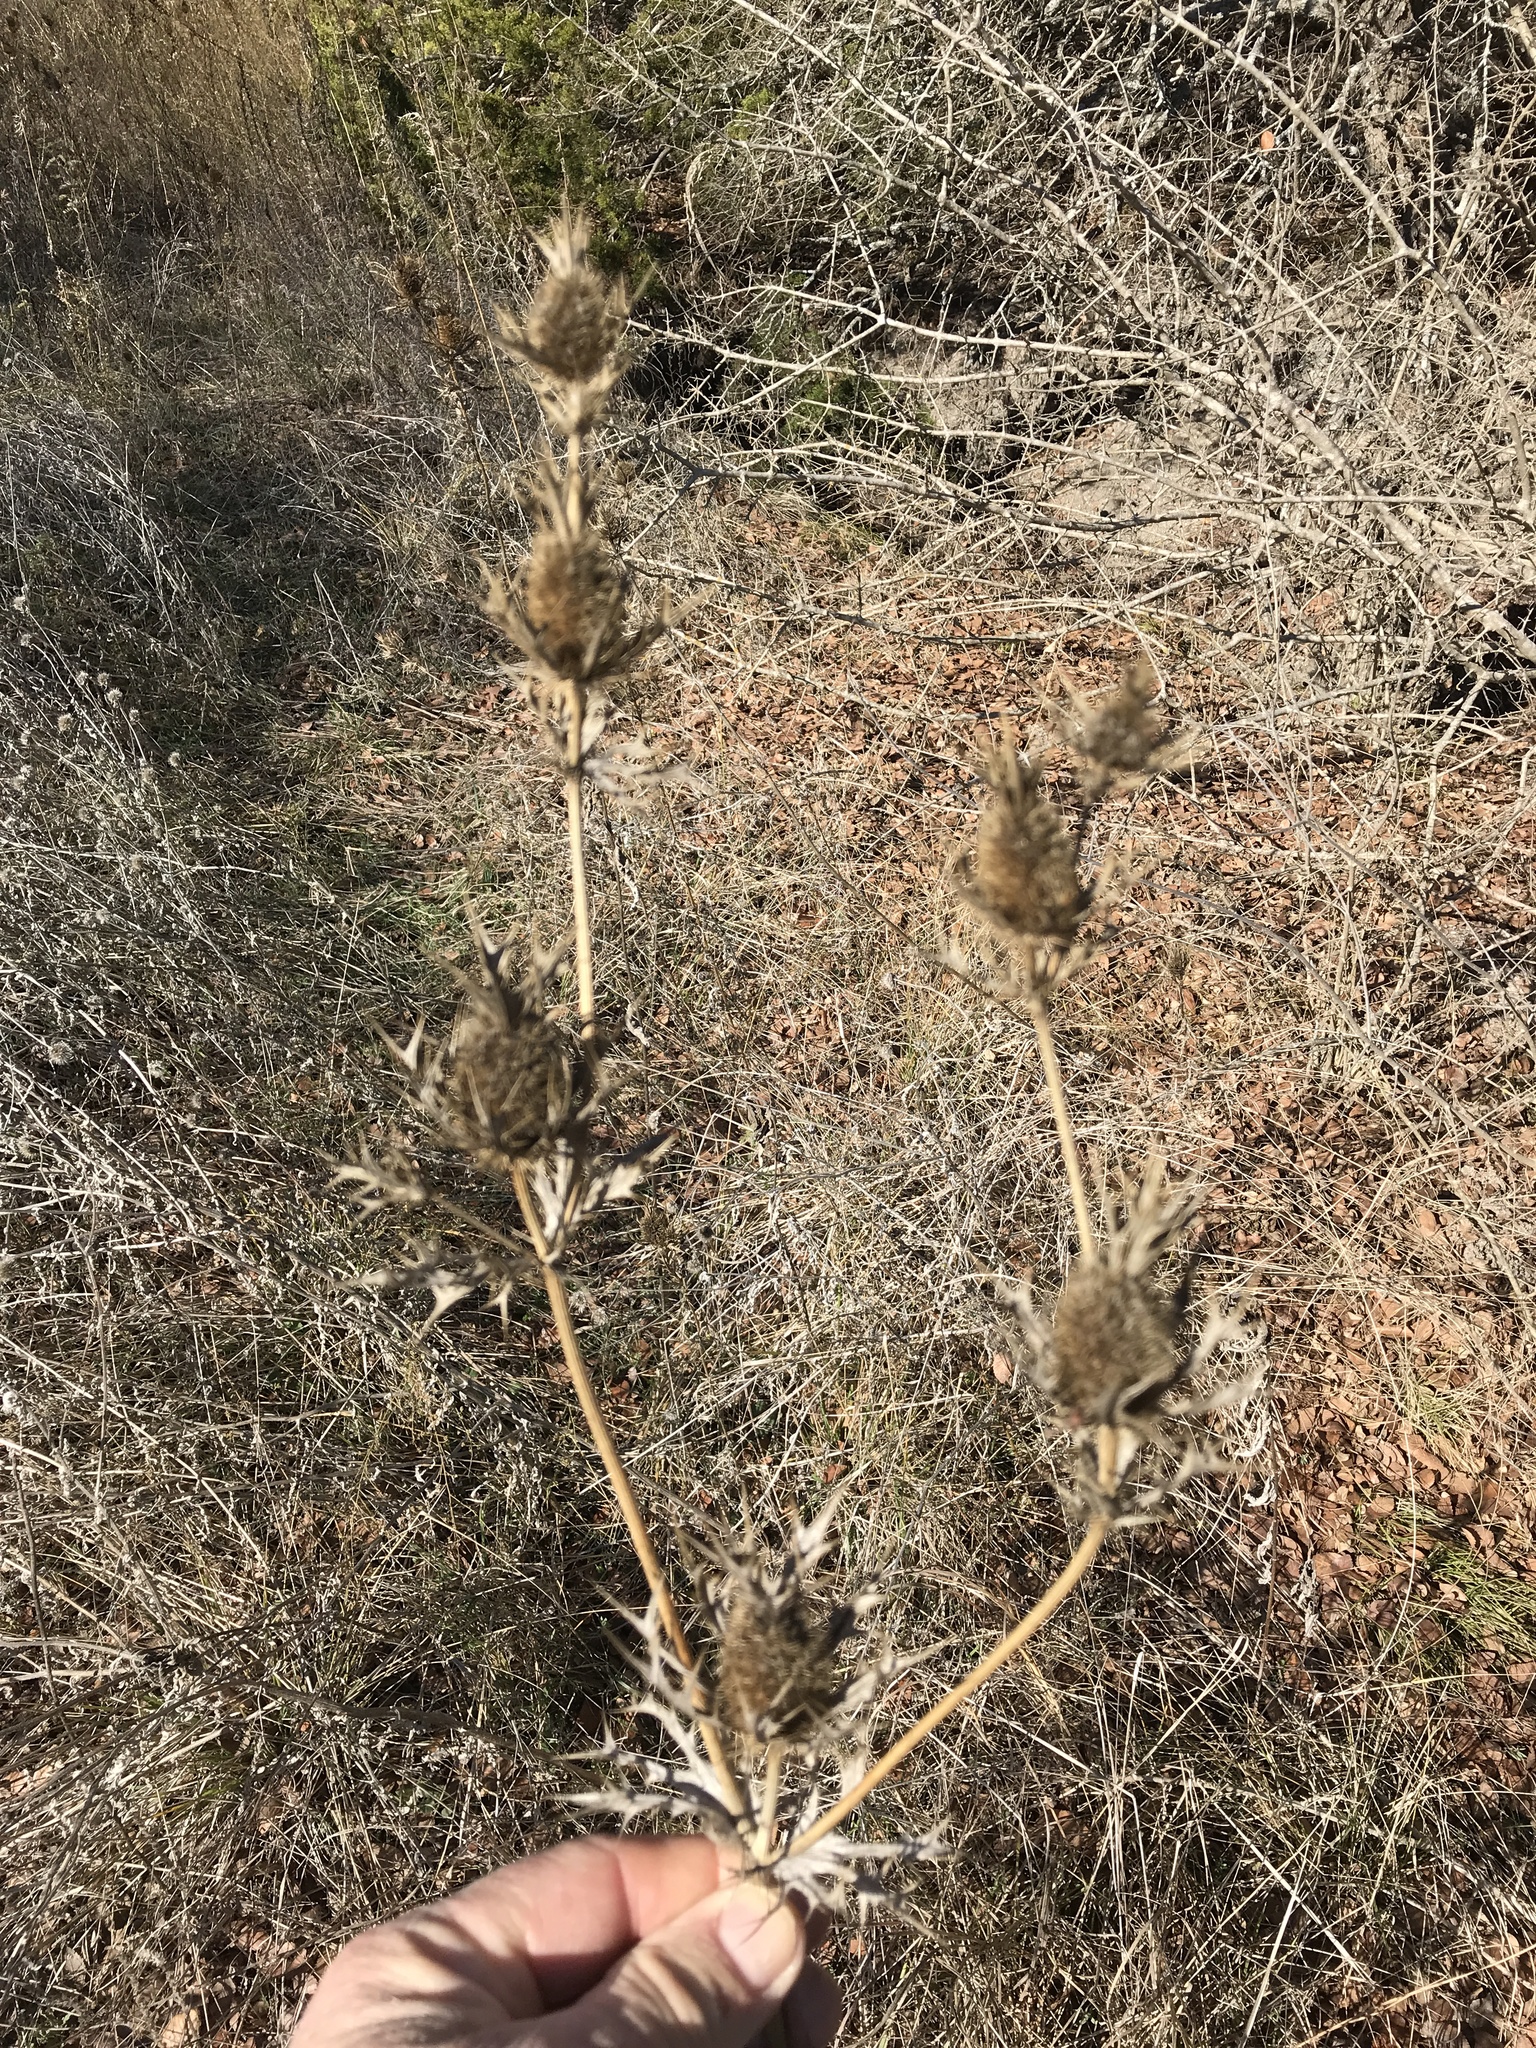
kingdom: Plantae
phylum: Tracheophyta
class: Magnoliopsida
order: Apiales
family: Apiaceae
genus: Eryngium
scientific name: Eryngium leavenworthii
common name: Leavenworth's eryngo
